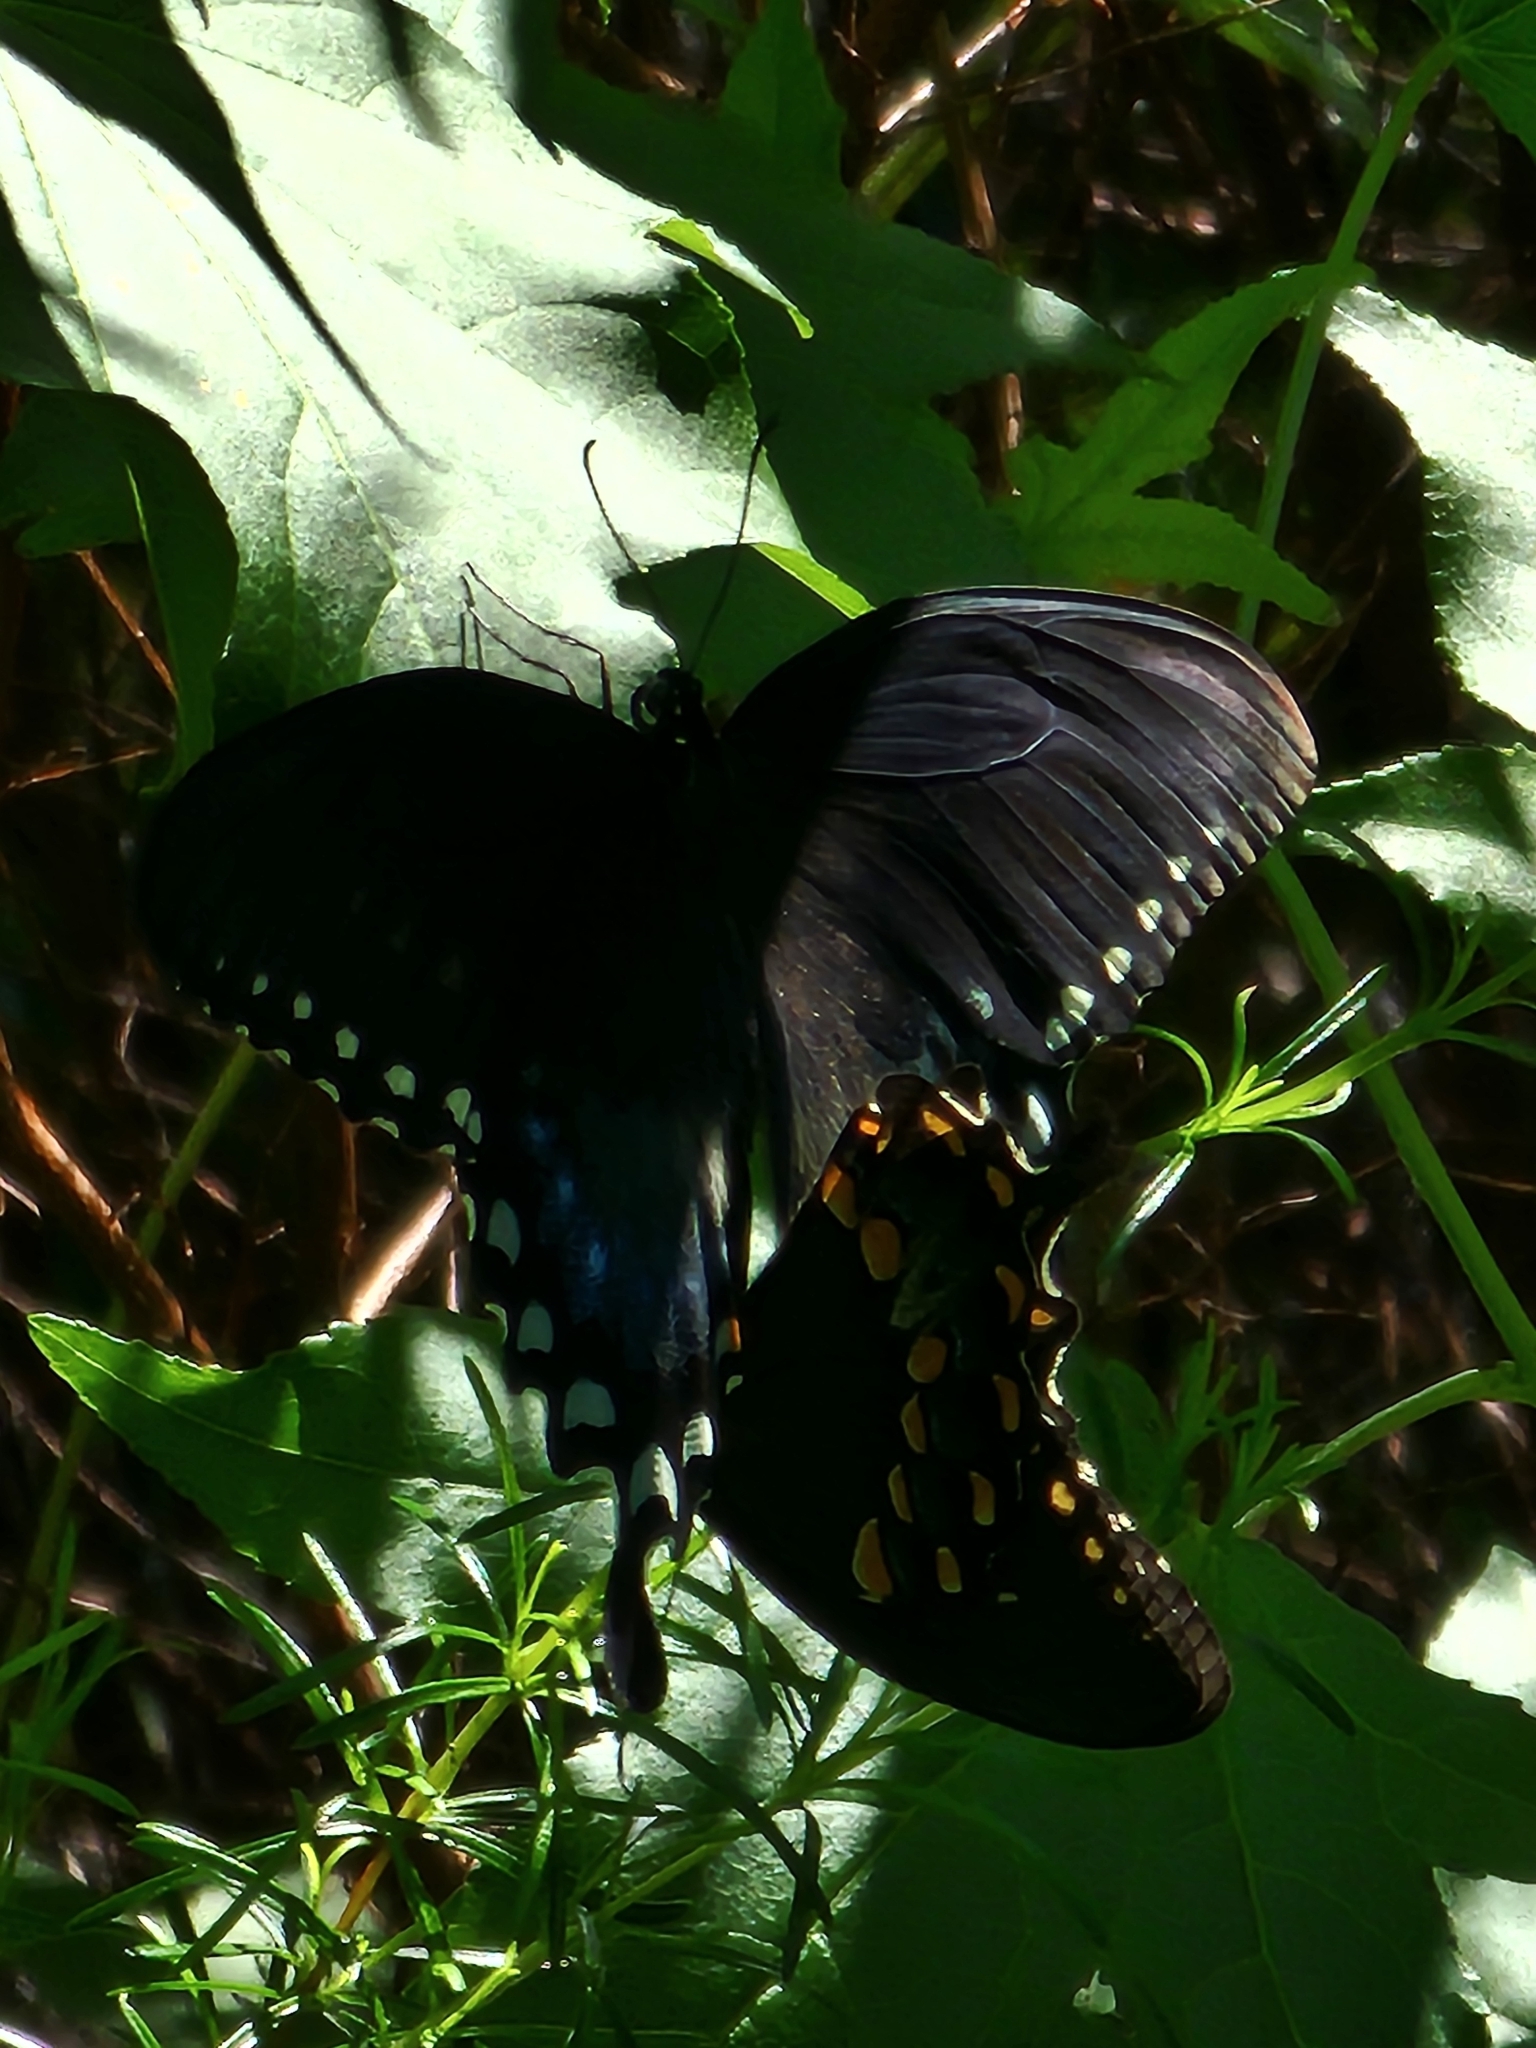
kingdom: Animalia
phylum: Arthropoda
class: Insecta
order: Lepidoptera
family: Papilionidae
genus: Papilio
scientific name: Papilio troilus
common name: Spicebush swallowtail
